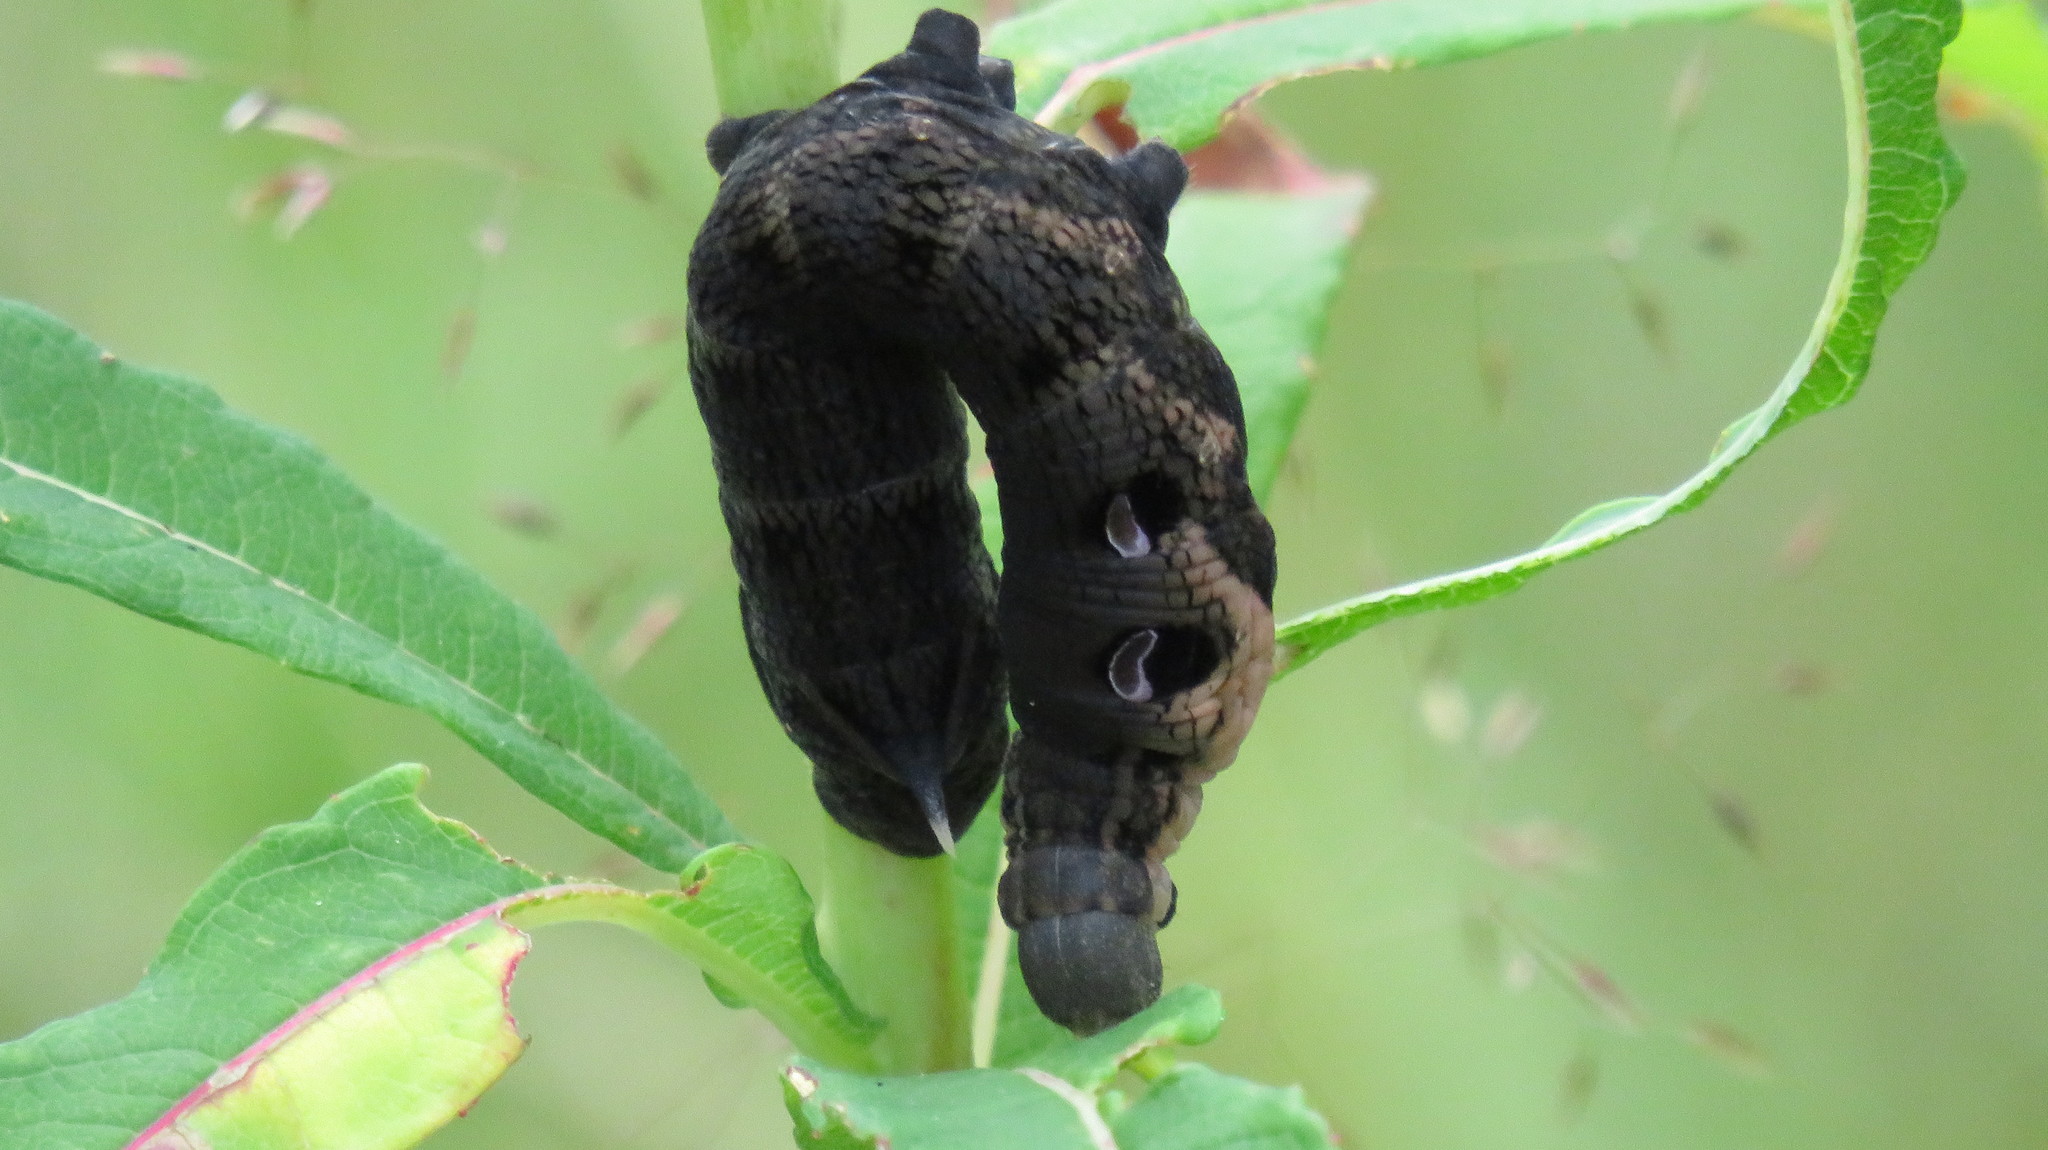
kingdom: Animalia
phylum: Arthropoda
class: Insecta
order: Lepidoptera
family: Sphingidae
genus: Deilephila
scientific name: Deilephila elpenor
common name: Elephant hawk-moth
